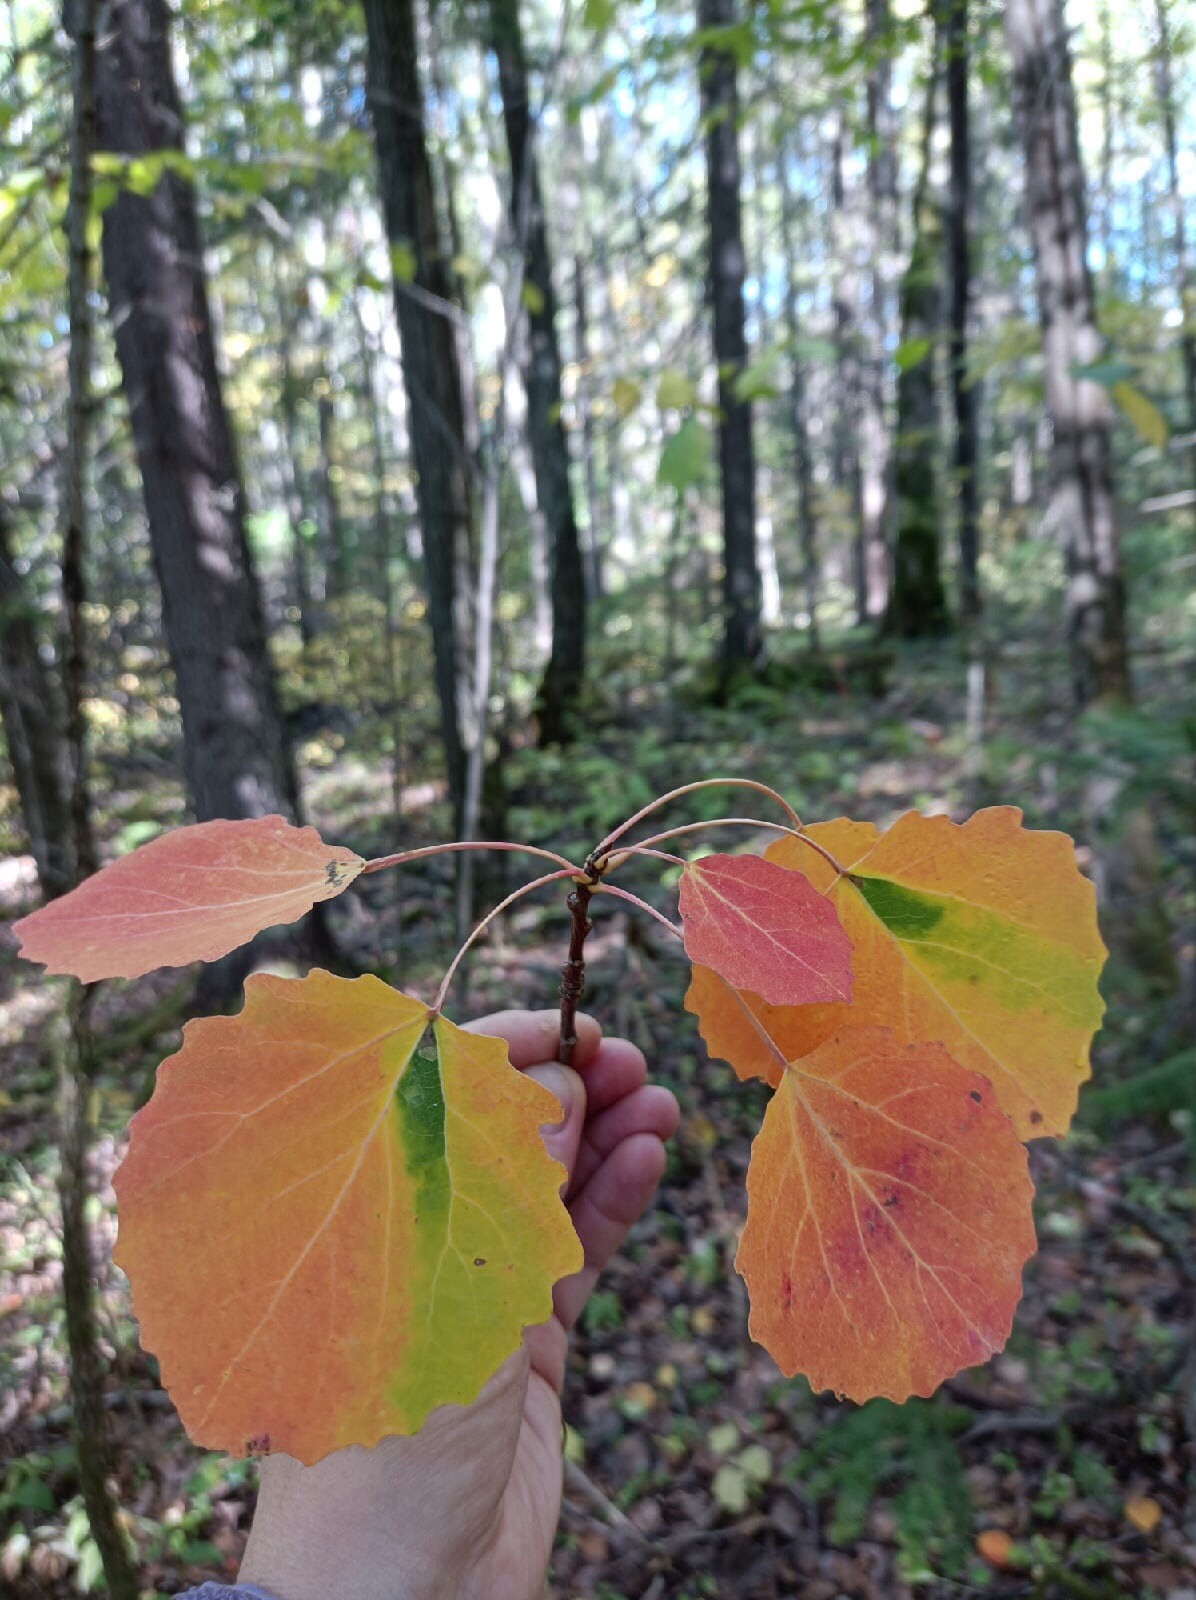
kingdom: Plantae
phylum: Tracheophyta
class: Magnoliopsida
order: Malpighiales
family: Salicaceae
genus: Populus
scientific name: Populus tremula
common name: European aspen
